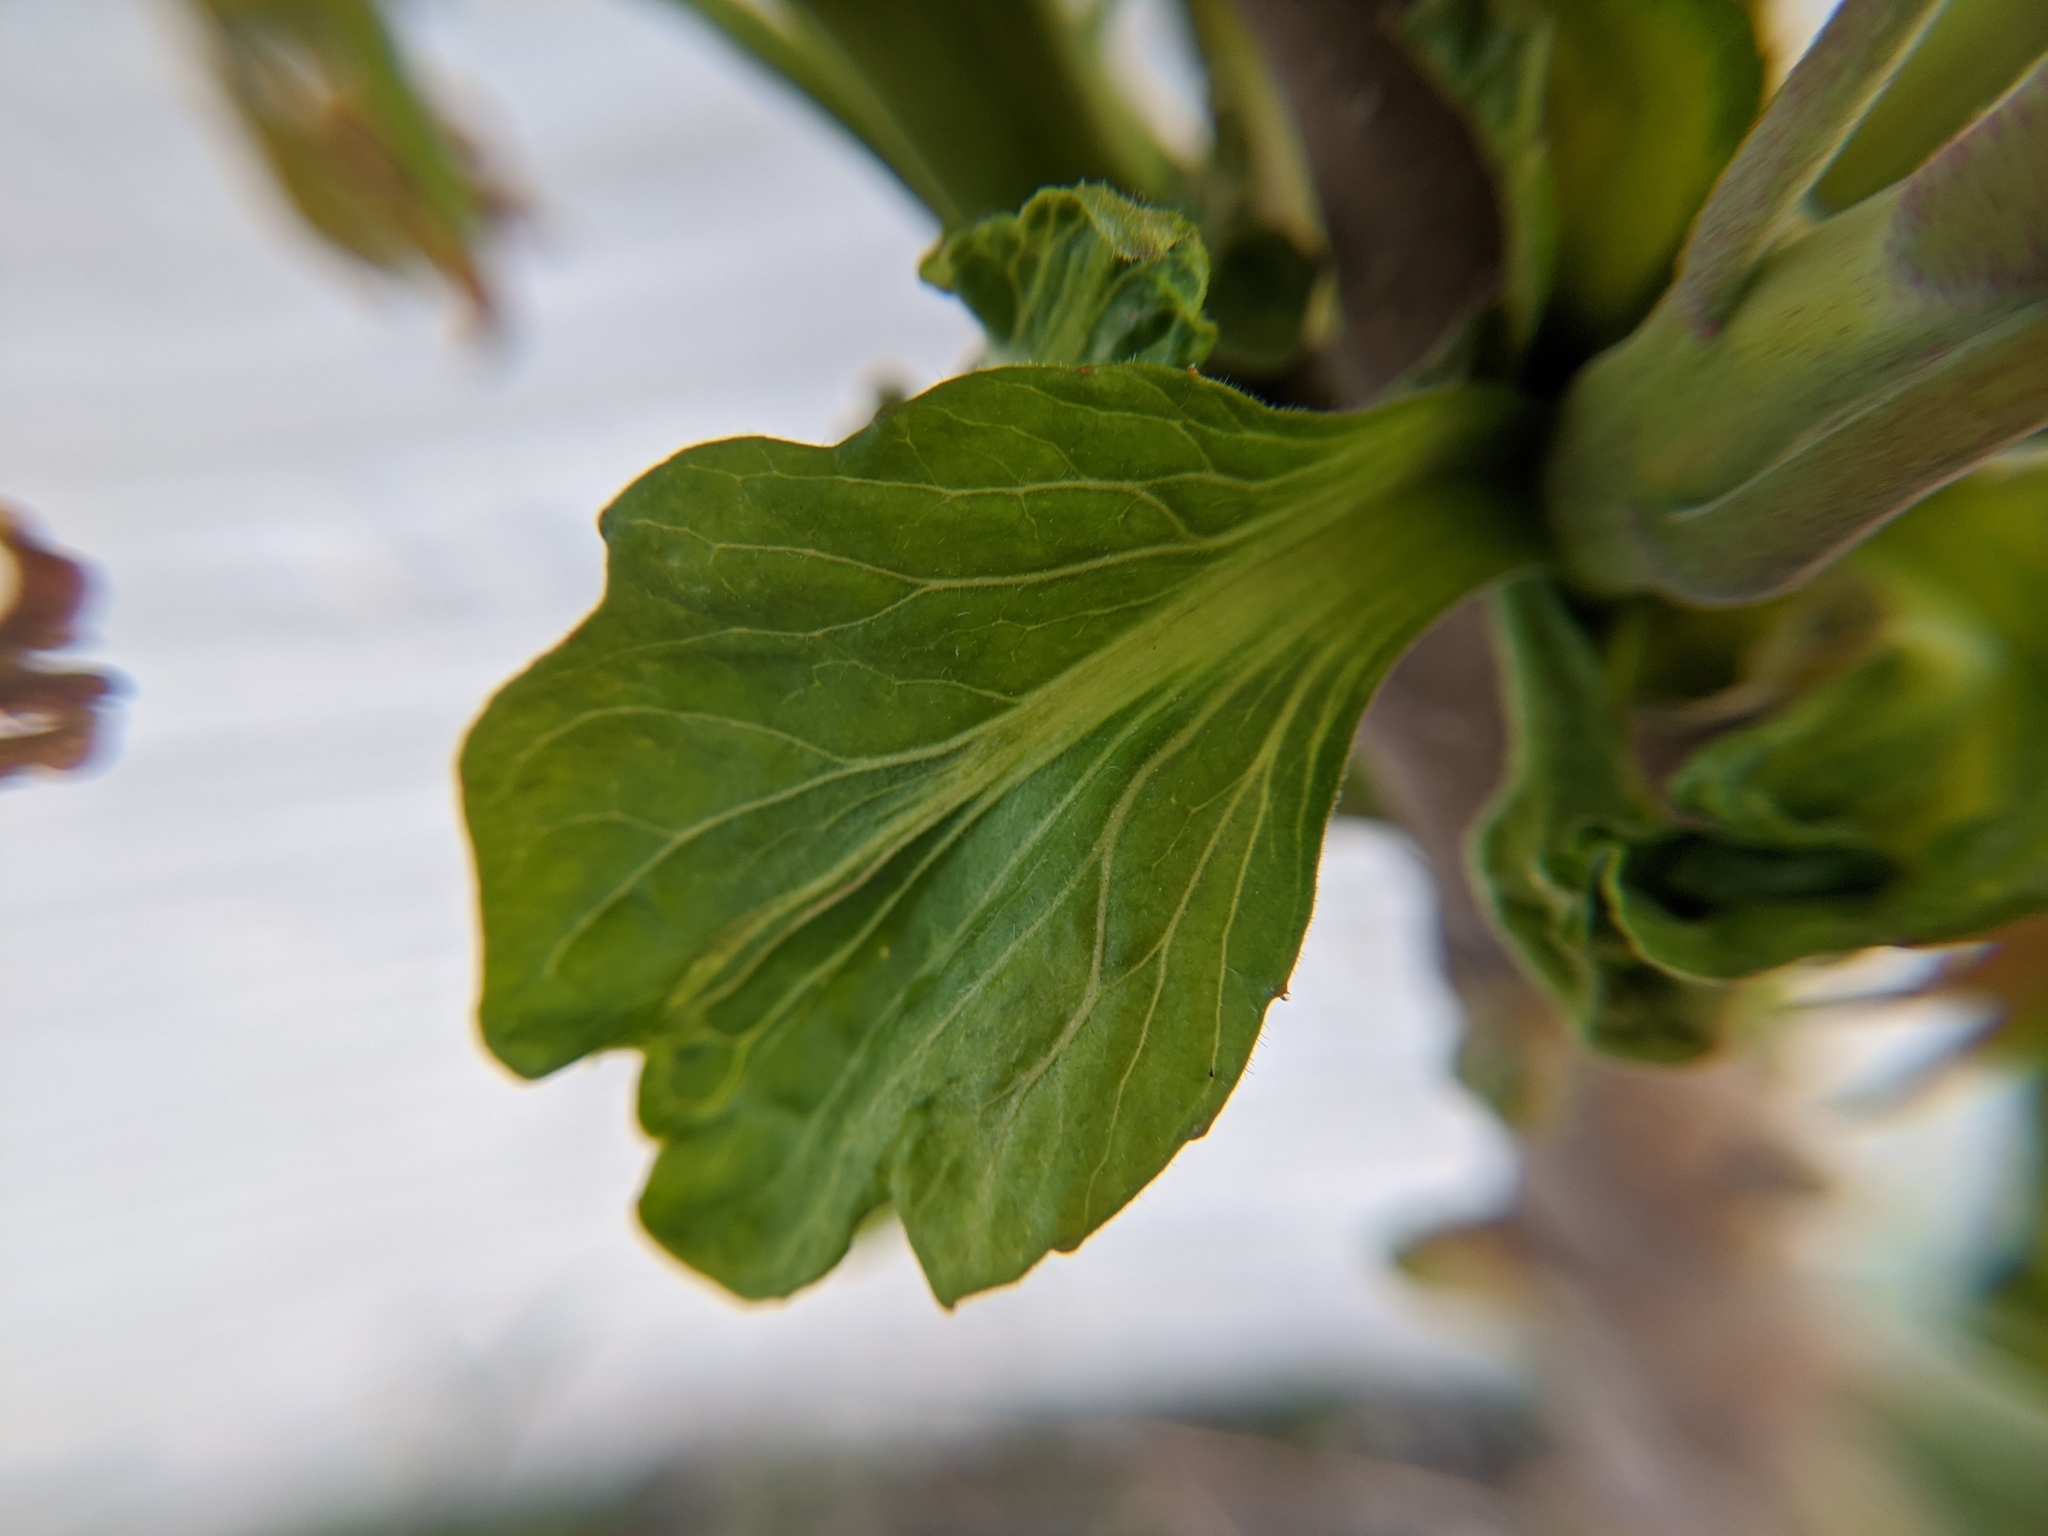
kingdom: Plantae
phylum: Tracheophyta
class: Magnoliopsida
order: Sapindales
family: Simaroubaceae
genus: Ailanthus
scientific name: Ailanthus altissima
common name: Tree-of-heaven
